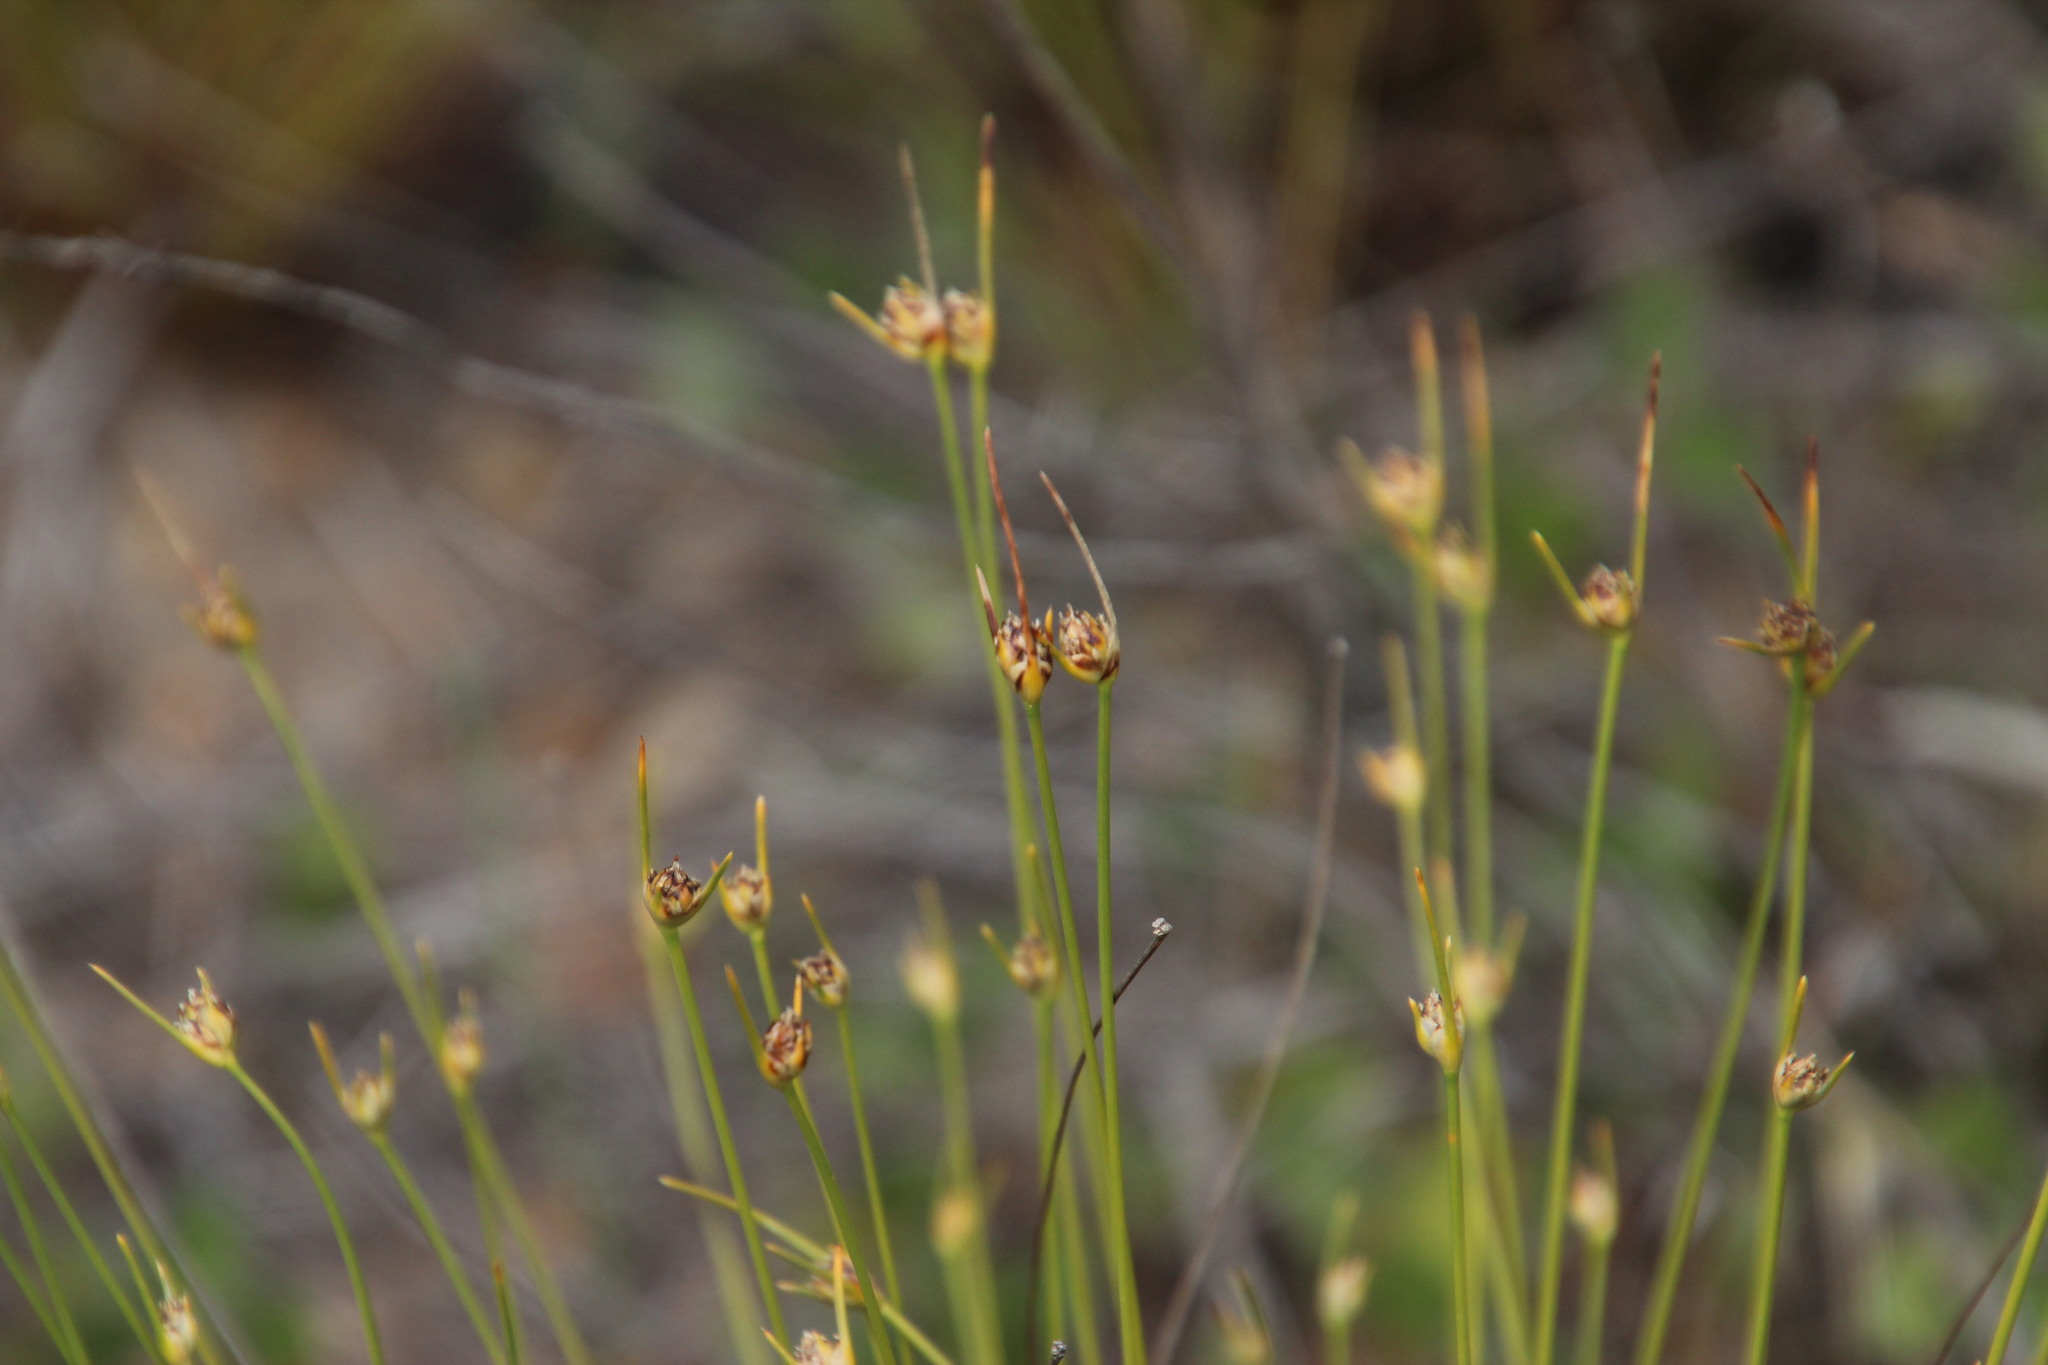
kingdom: Plantae
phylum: Tracheophyta
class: Liliopsida
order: Poales
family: Cyperaceae
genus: Ficinia
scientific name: Ficinia capitella
